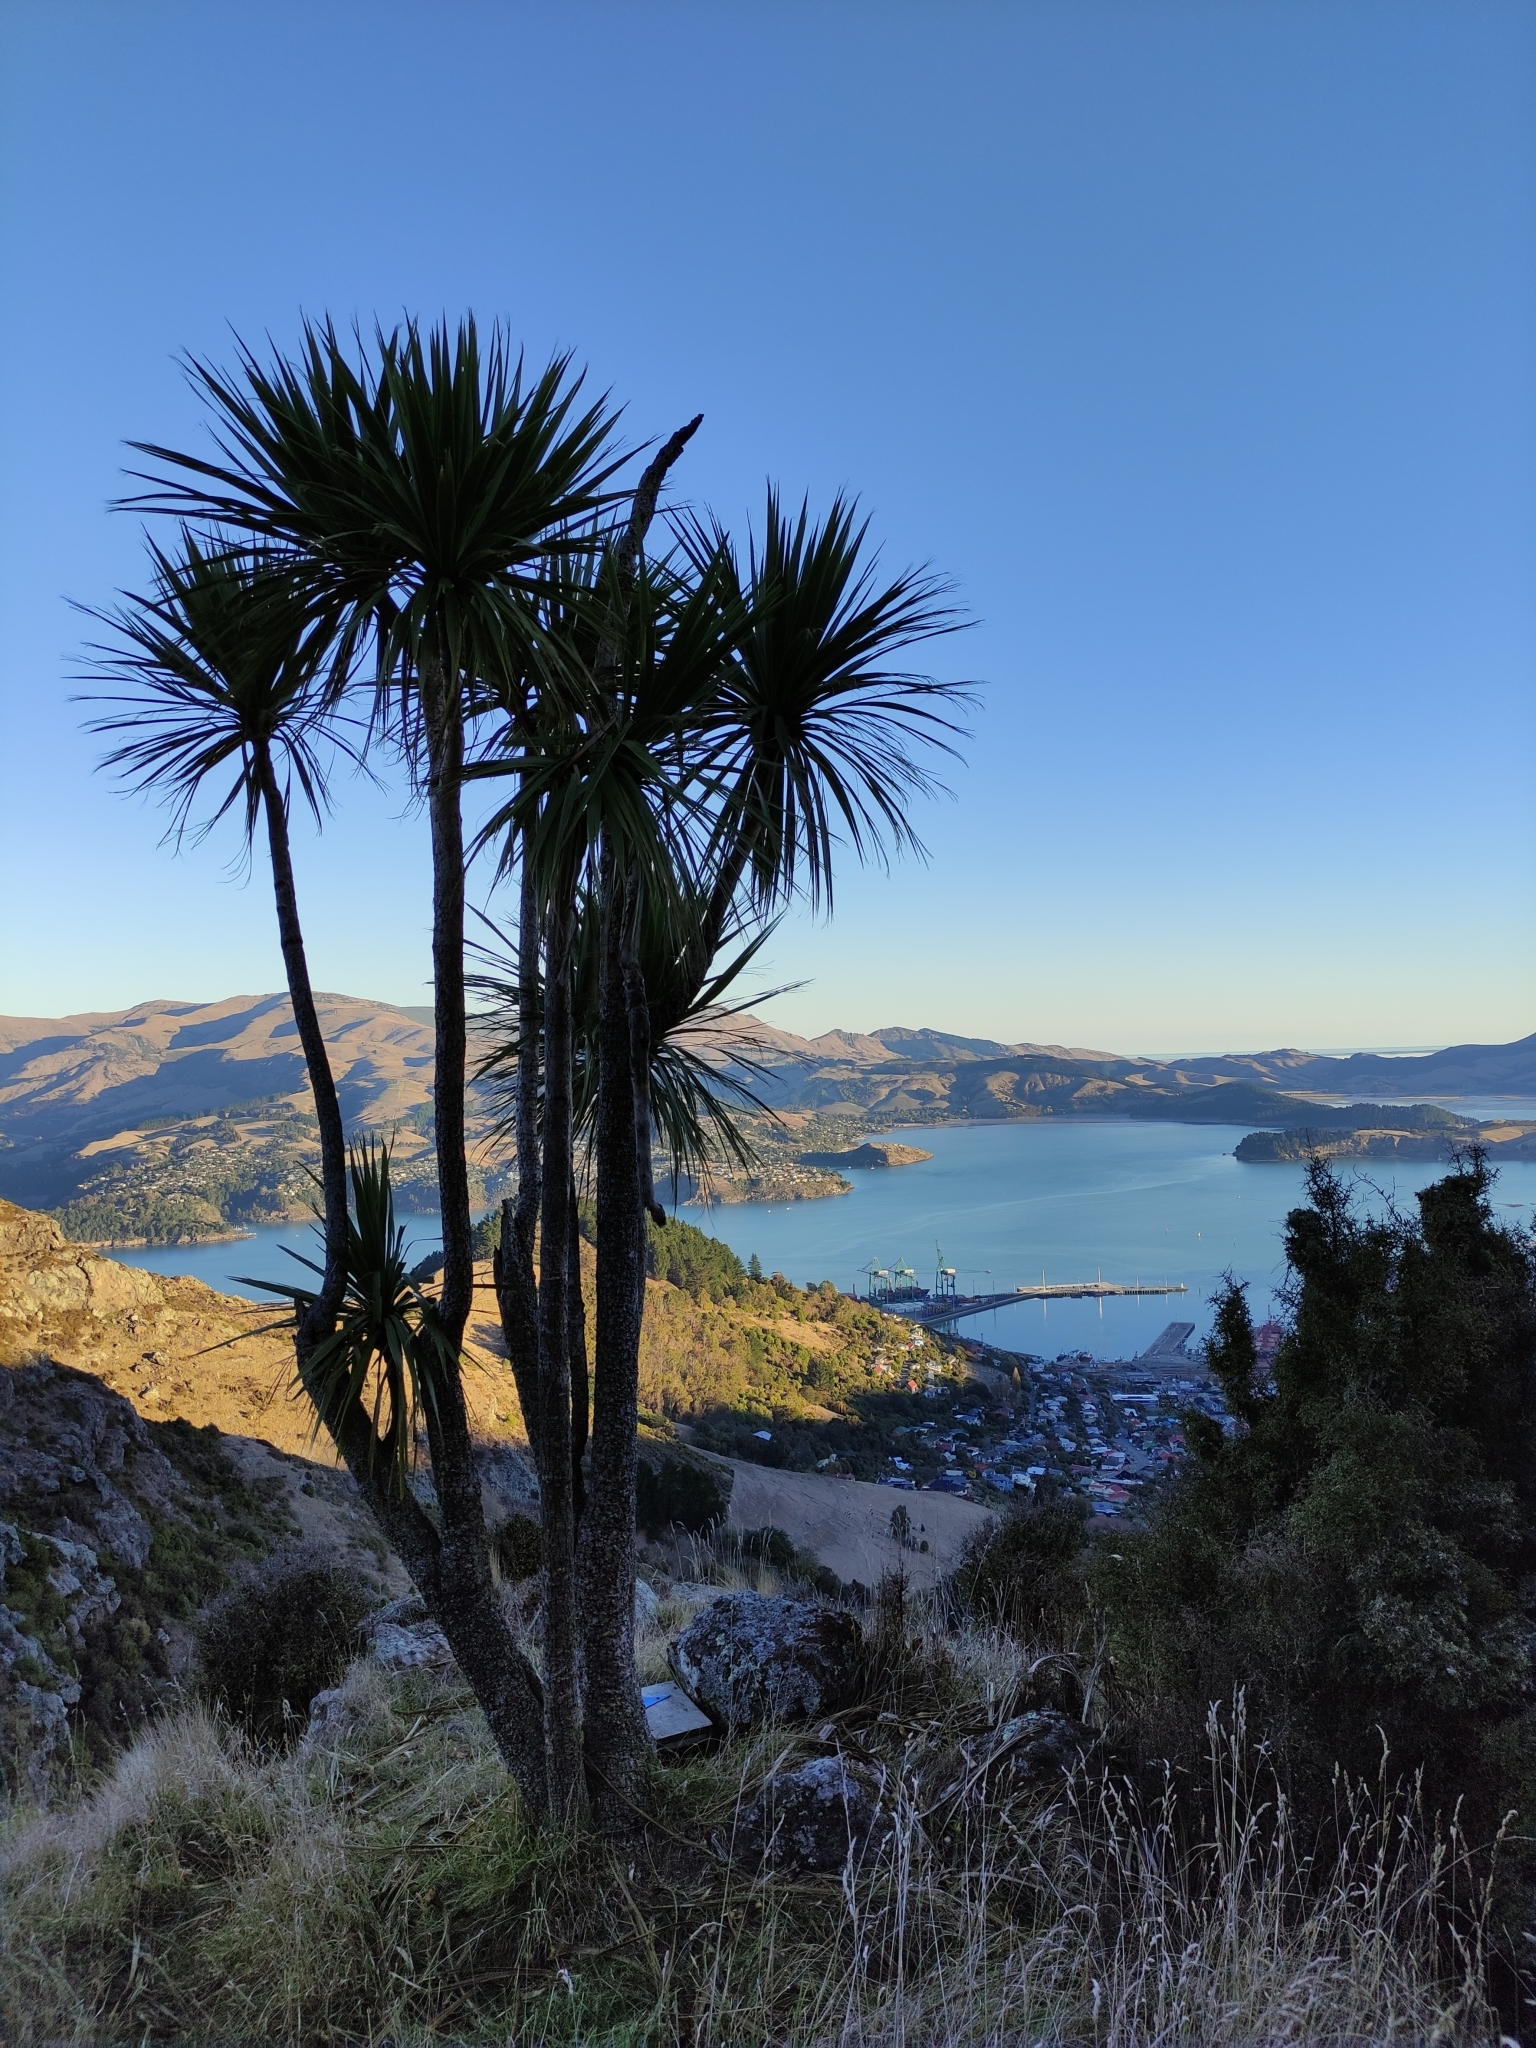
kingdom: Plantae
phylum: Tracheophyta
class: Liliopsida
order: Asparagales
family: Asparagaceae
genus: Cordyline
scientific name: Cordyline australis
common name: Cabbage-palm
